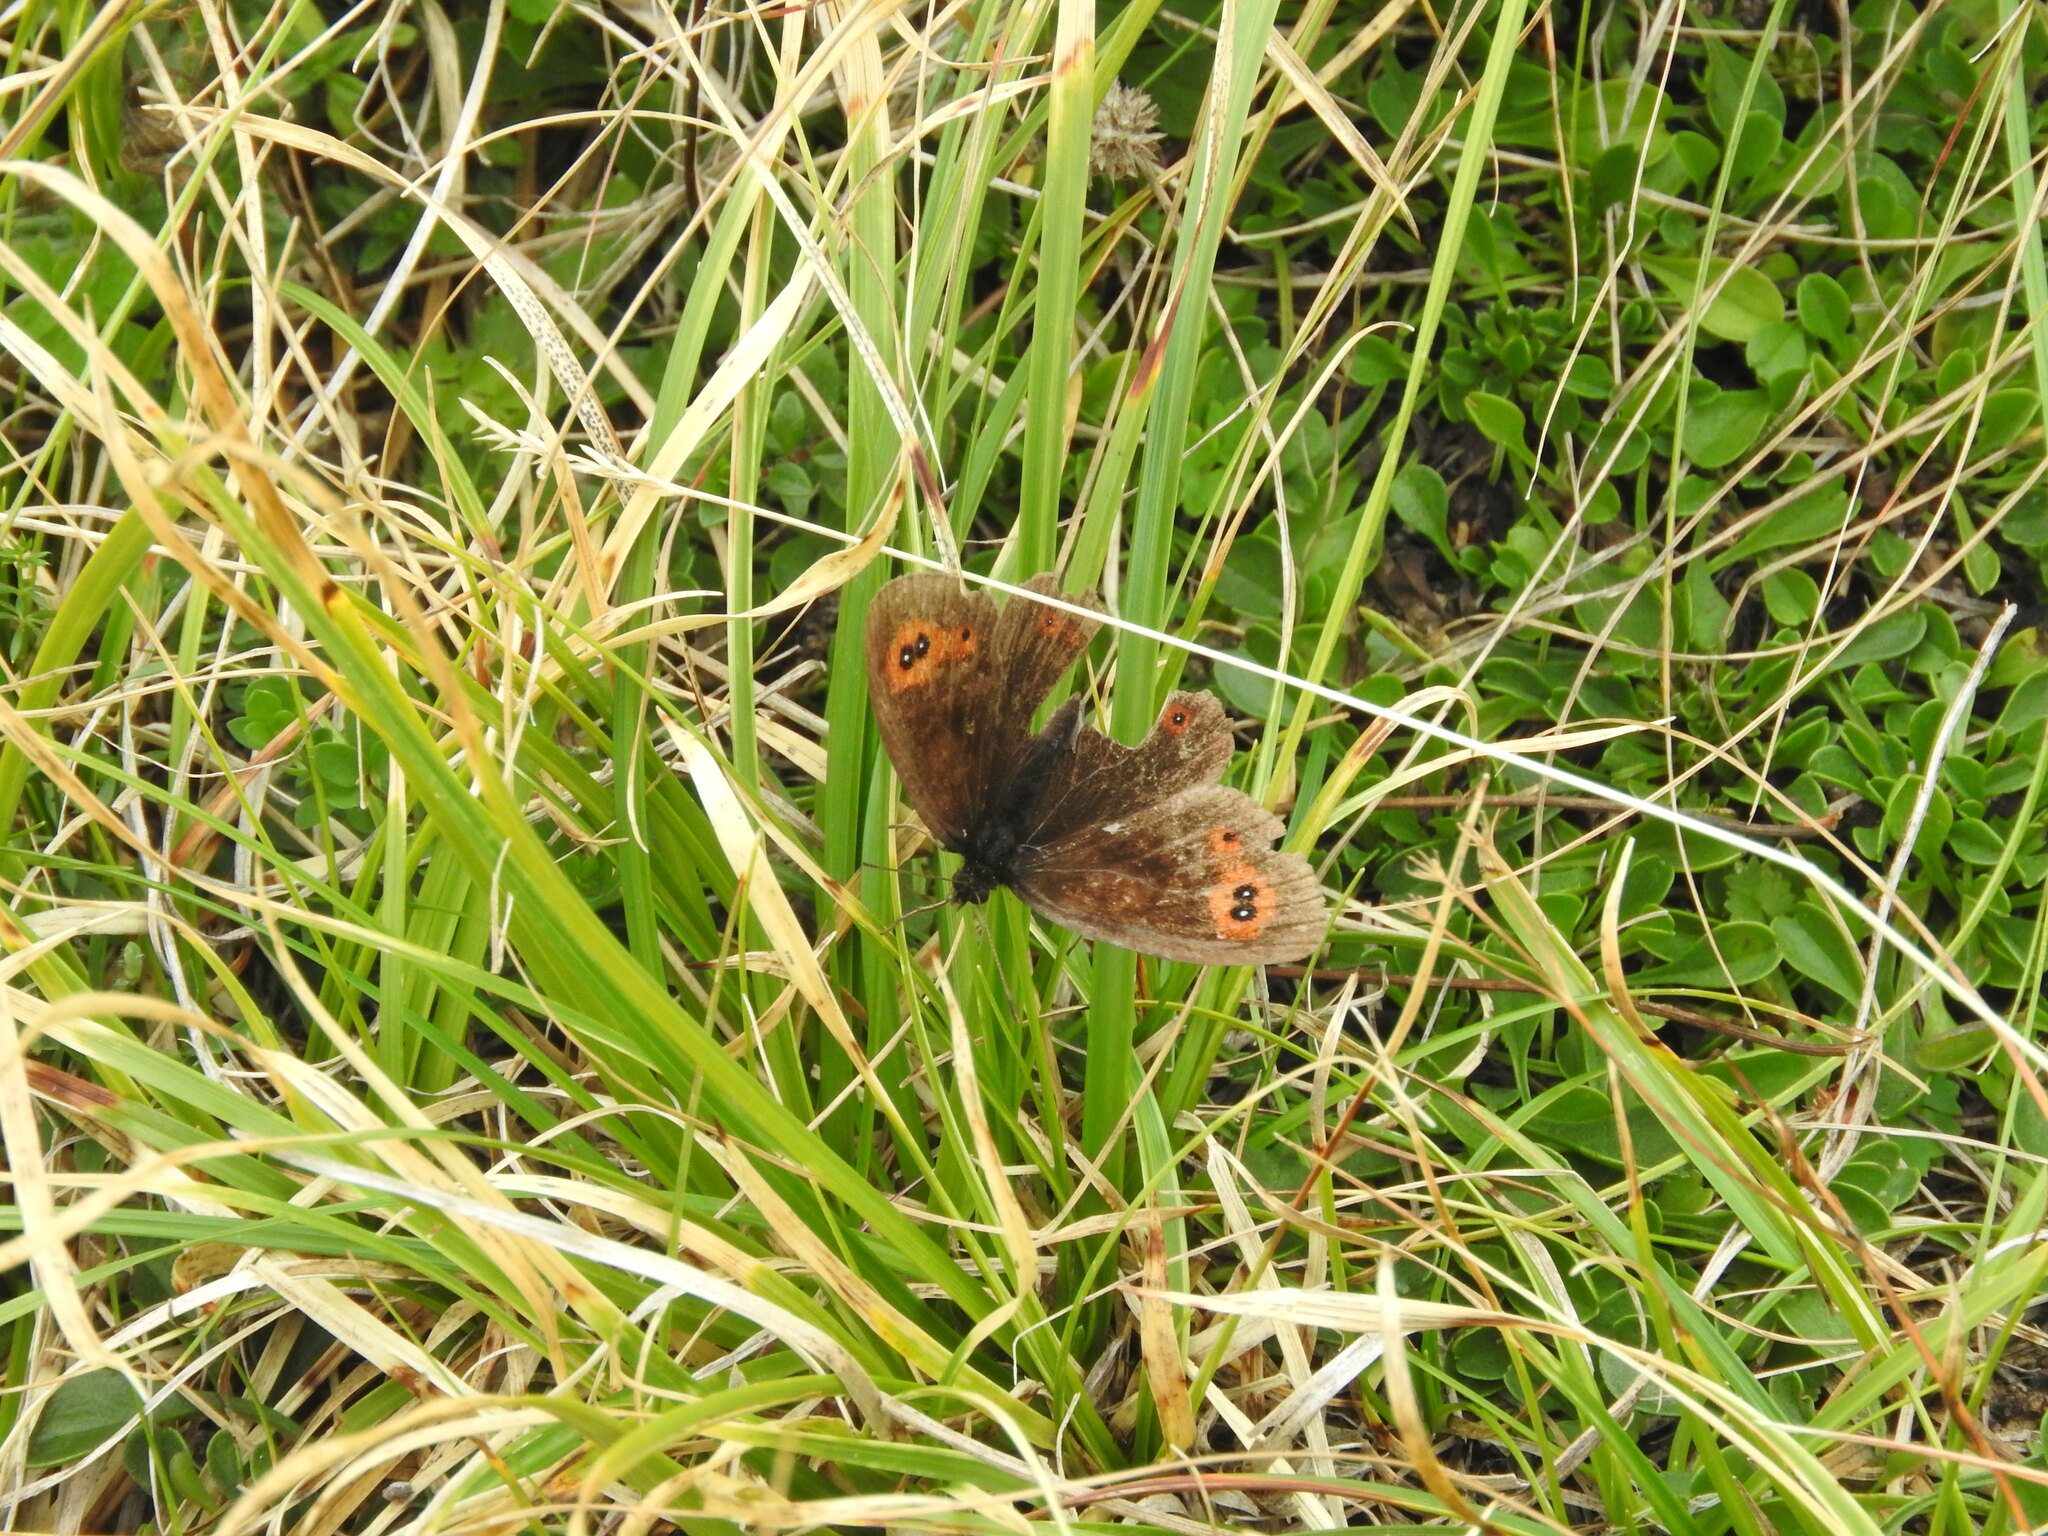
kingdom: Animalia
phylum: Arthropoda
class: Insecta
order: Lepidoptera
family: Nymphalidae
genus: Erebia
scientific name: Erebia aethiops
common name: Scotch argus
